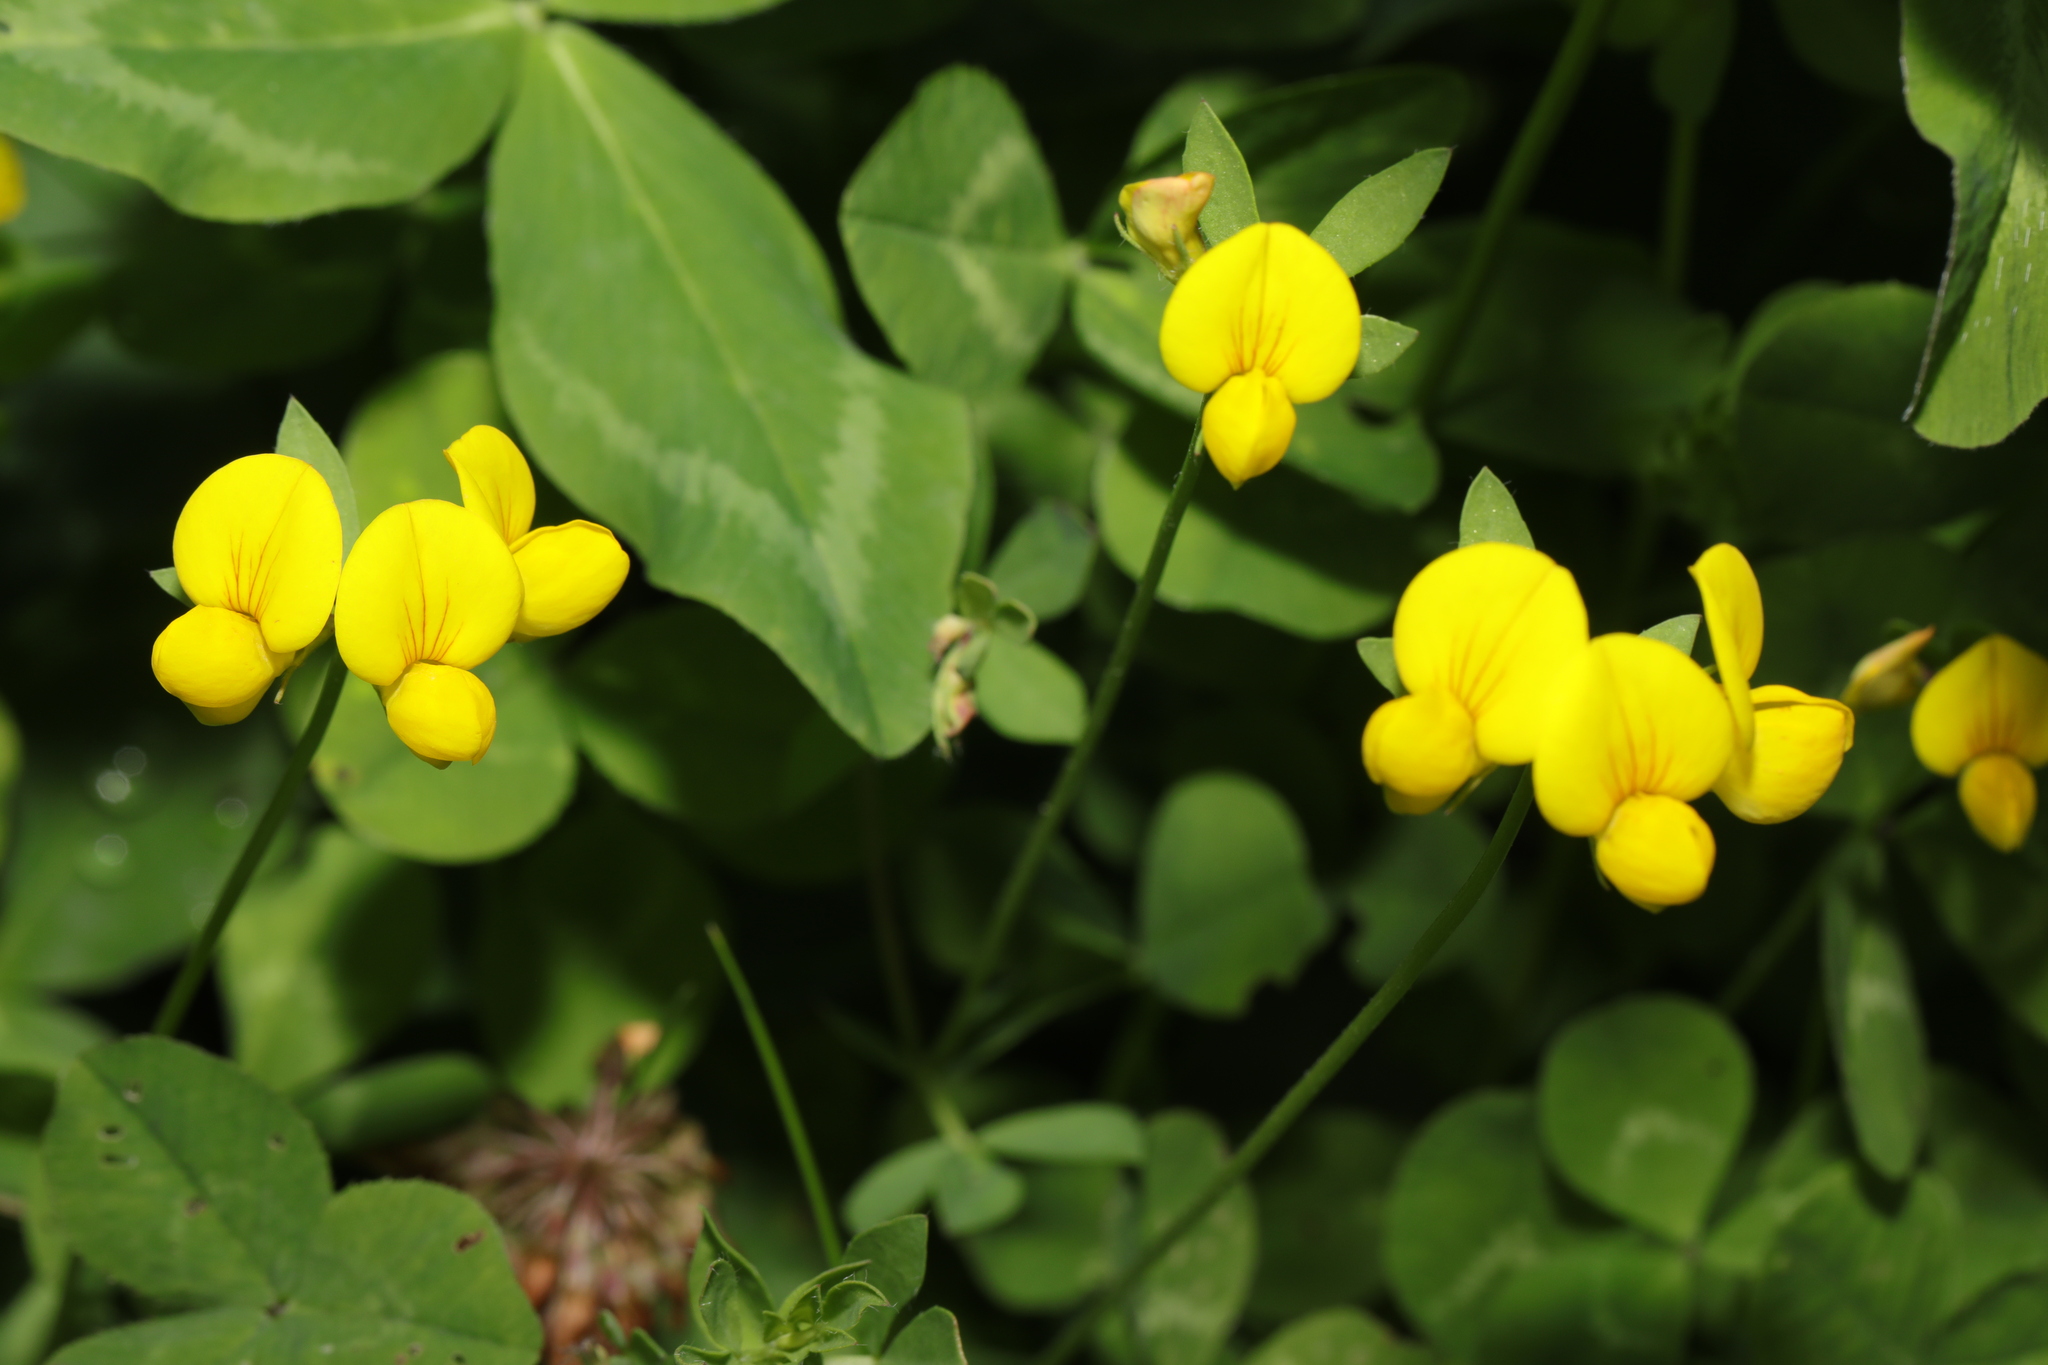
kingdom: Plantae
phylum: Tracheophyta
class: Magnoliopsida
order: Fabales
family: Fabaceae
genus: Lotus
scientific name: Lotus corniculatus
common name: Common bird's-foot-trefoil
